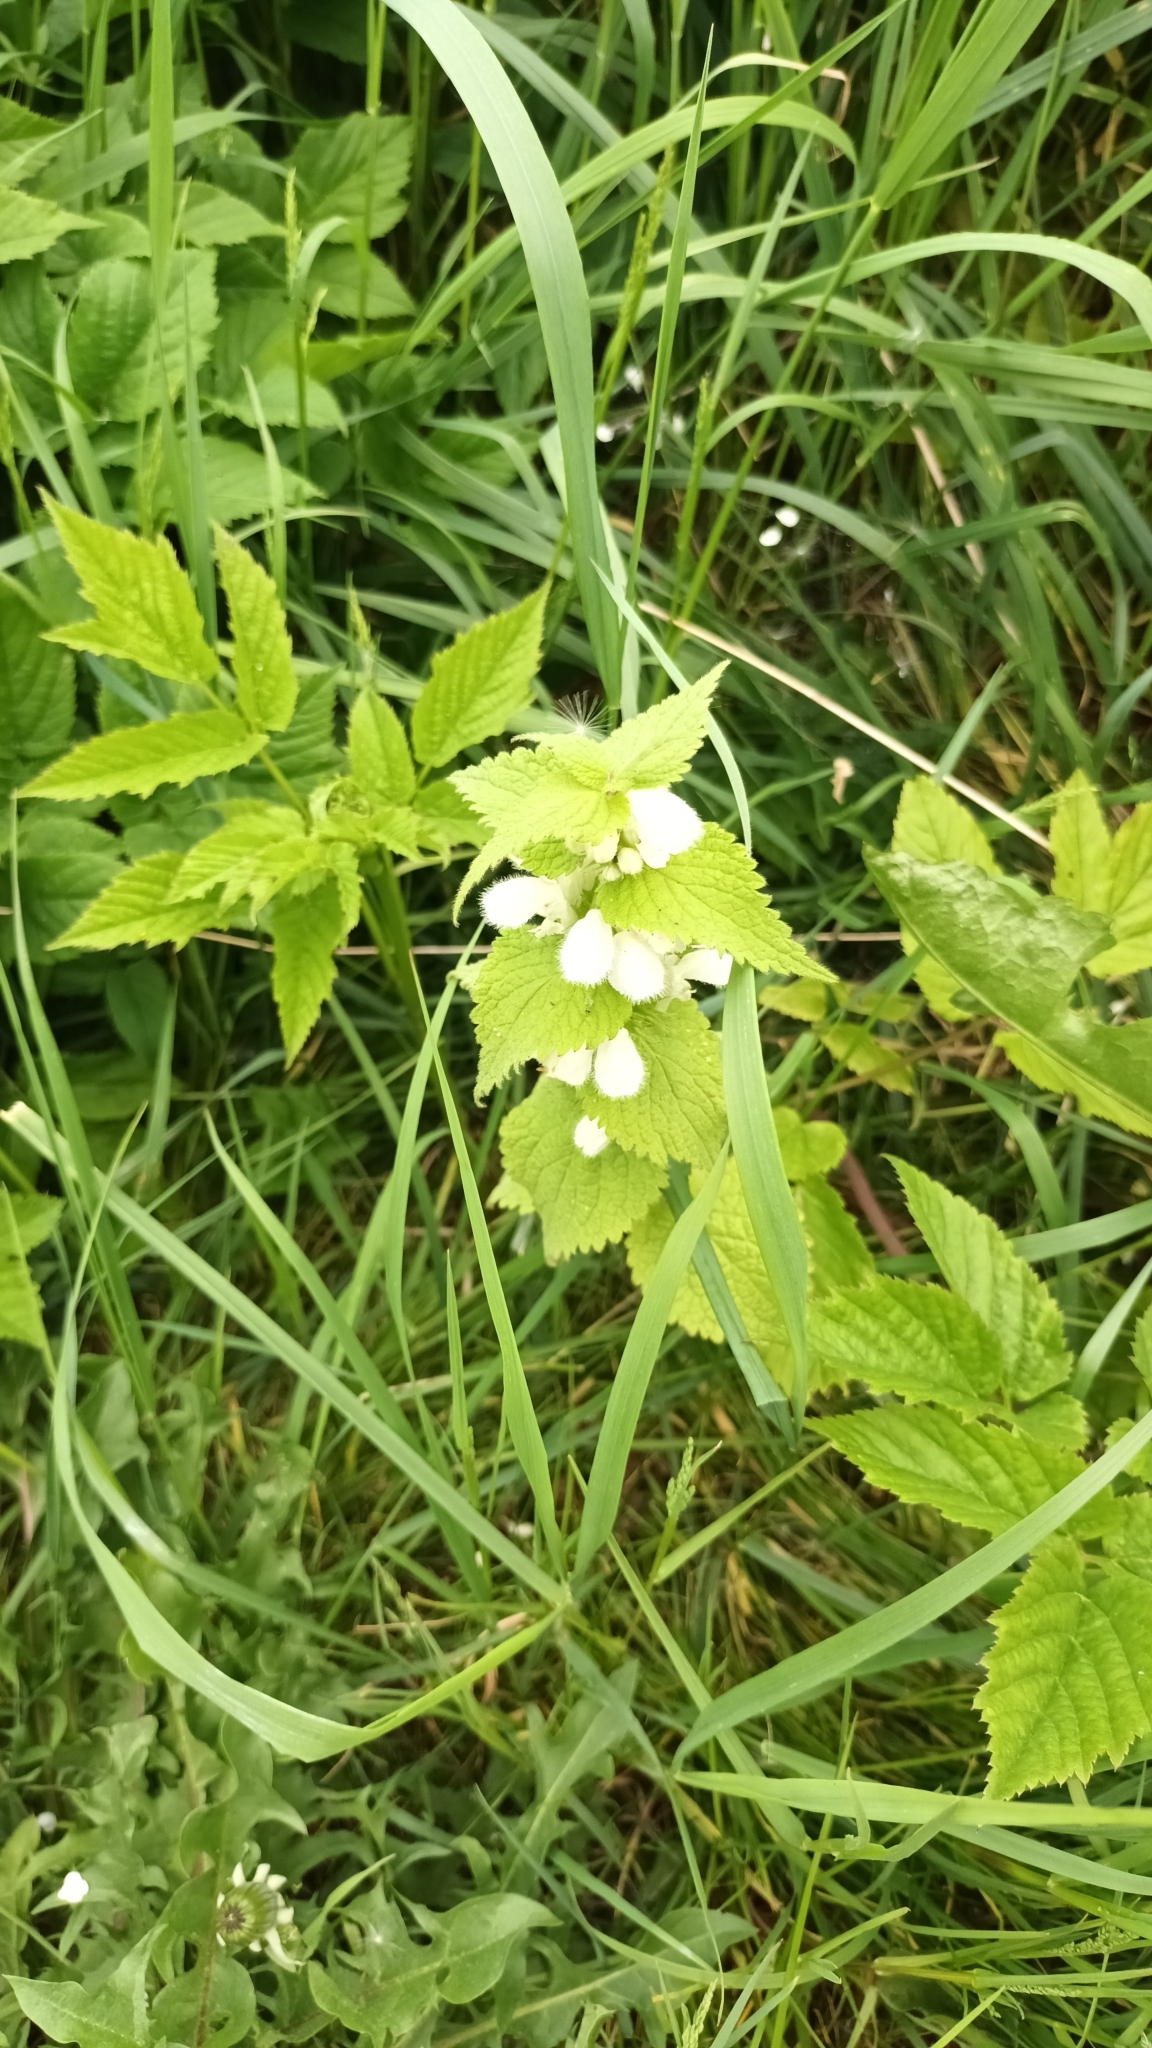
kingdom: Plantae
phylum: Tracheophyta
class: Magnoliopsida
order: Lamiales
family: Lamiaceae
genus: Lamium
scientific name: Lamium album
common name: White dead-nettle
